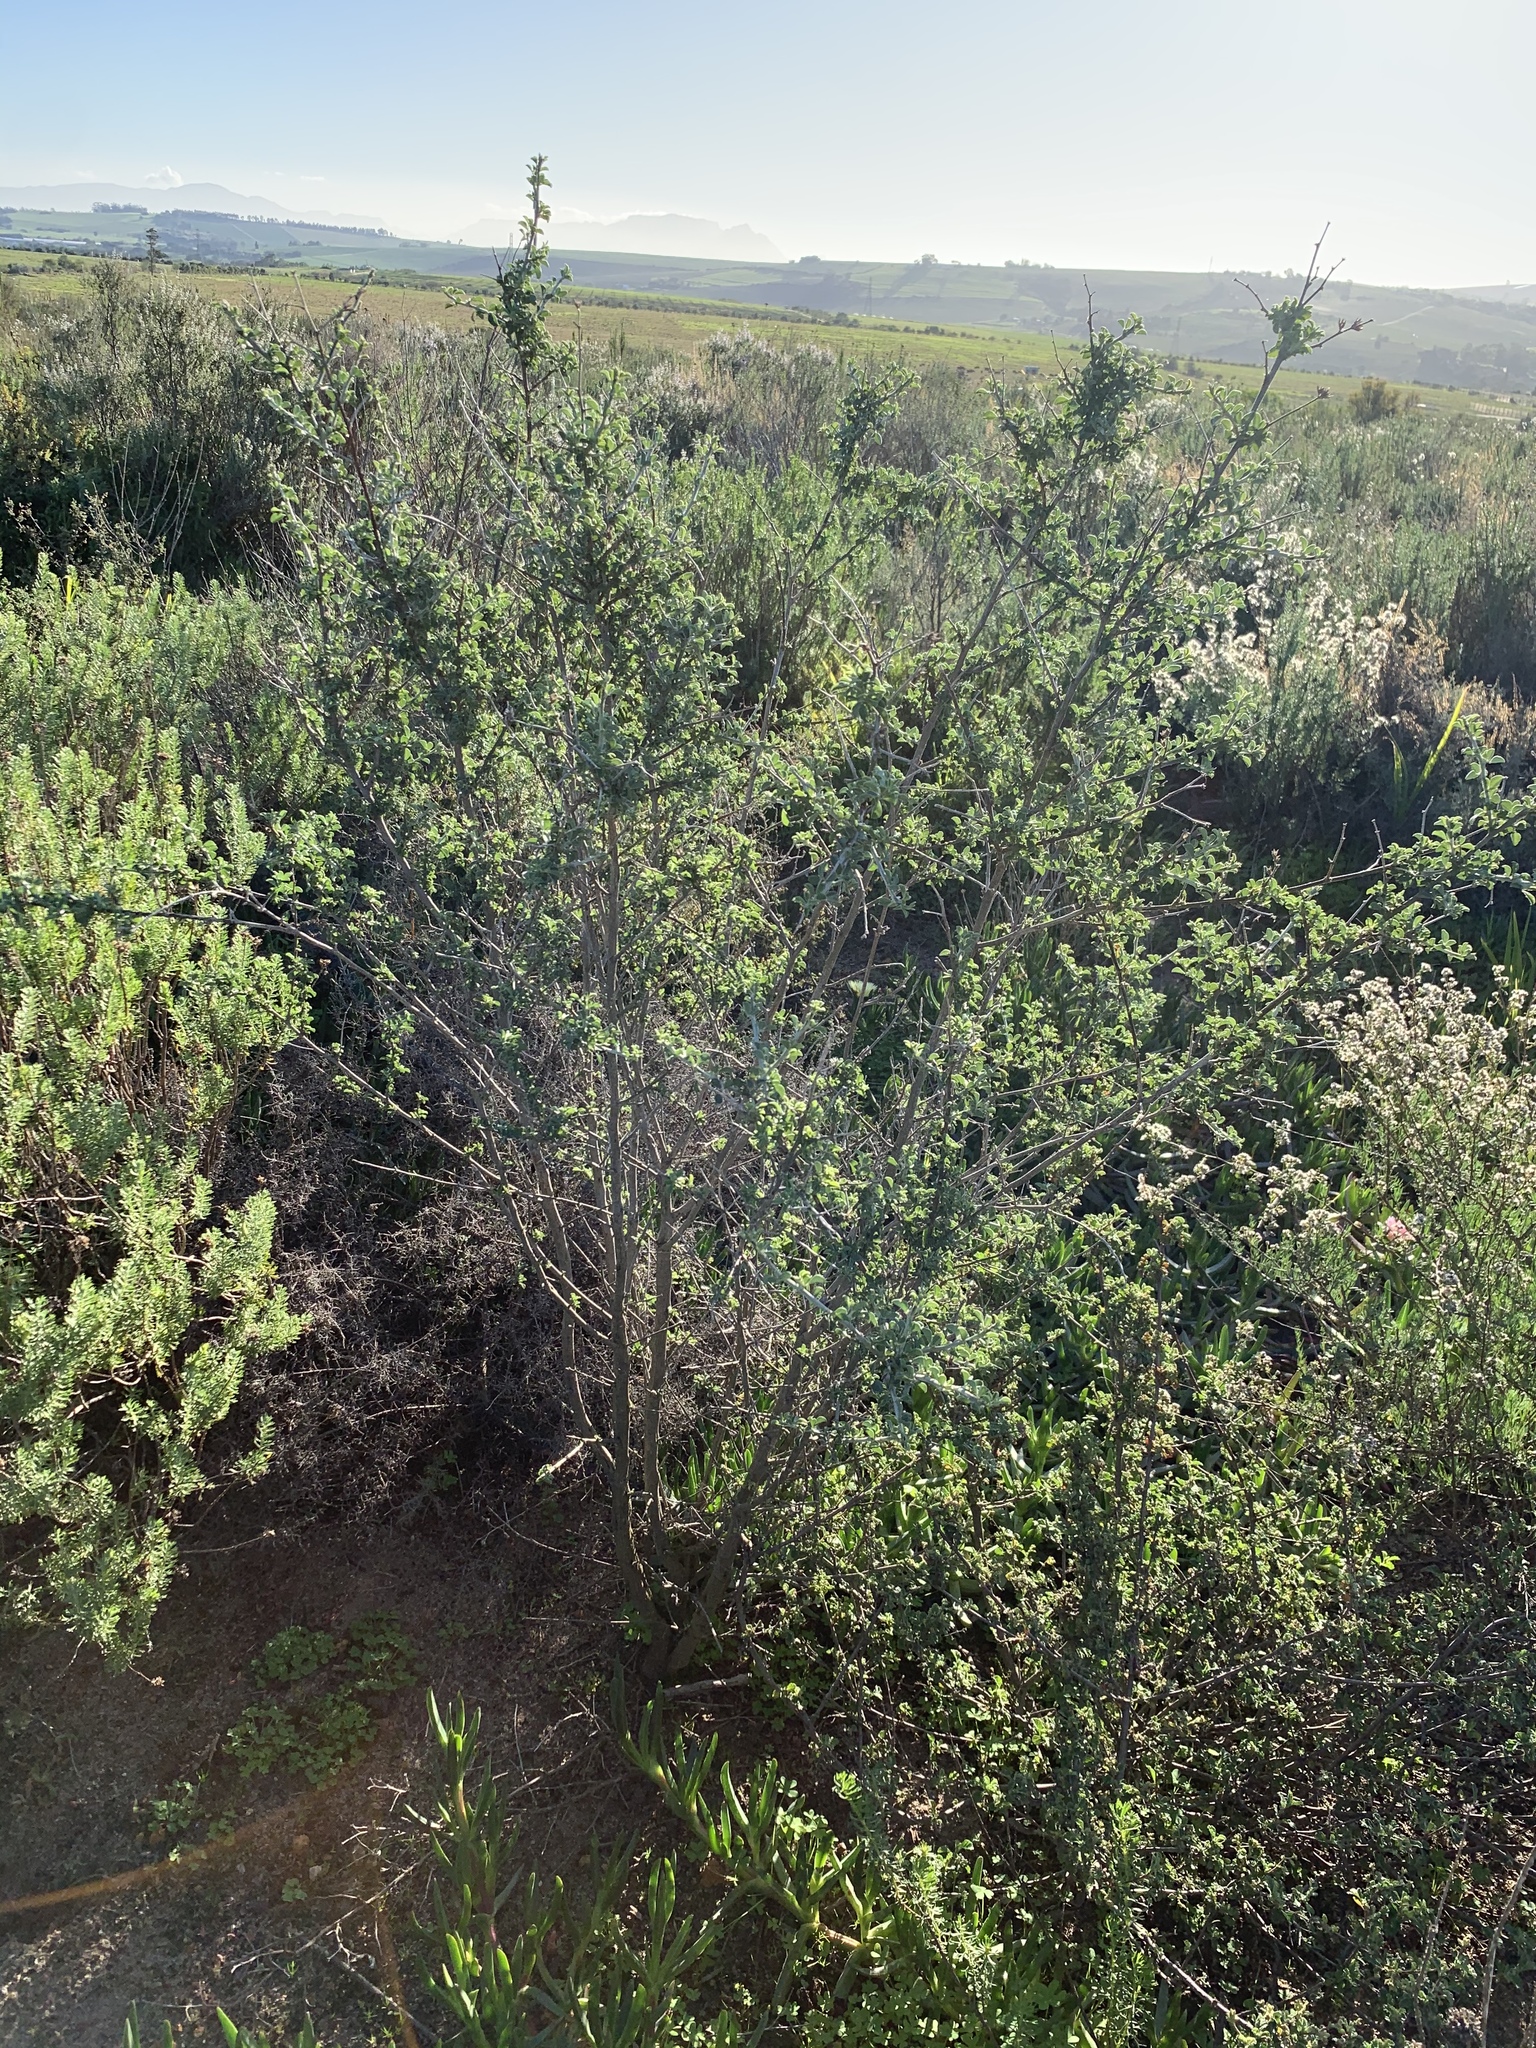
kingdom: Plantae
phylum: Tracheophyta
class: Magnoliopsida
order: Fabales
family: Fabaceae
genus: Psoralea
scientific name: Psoralea hirta
